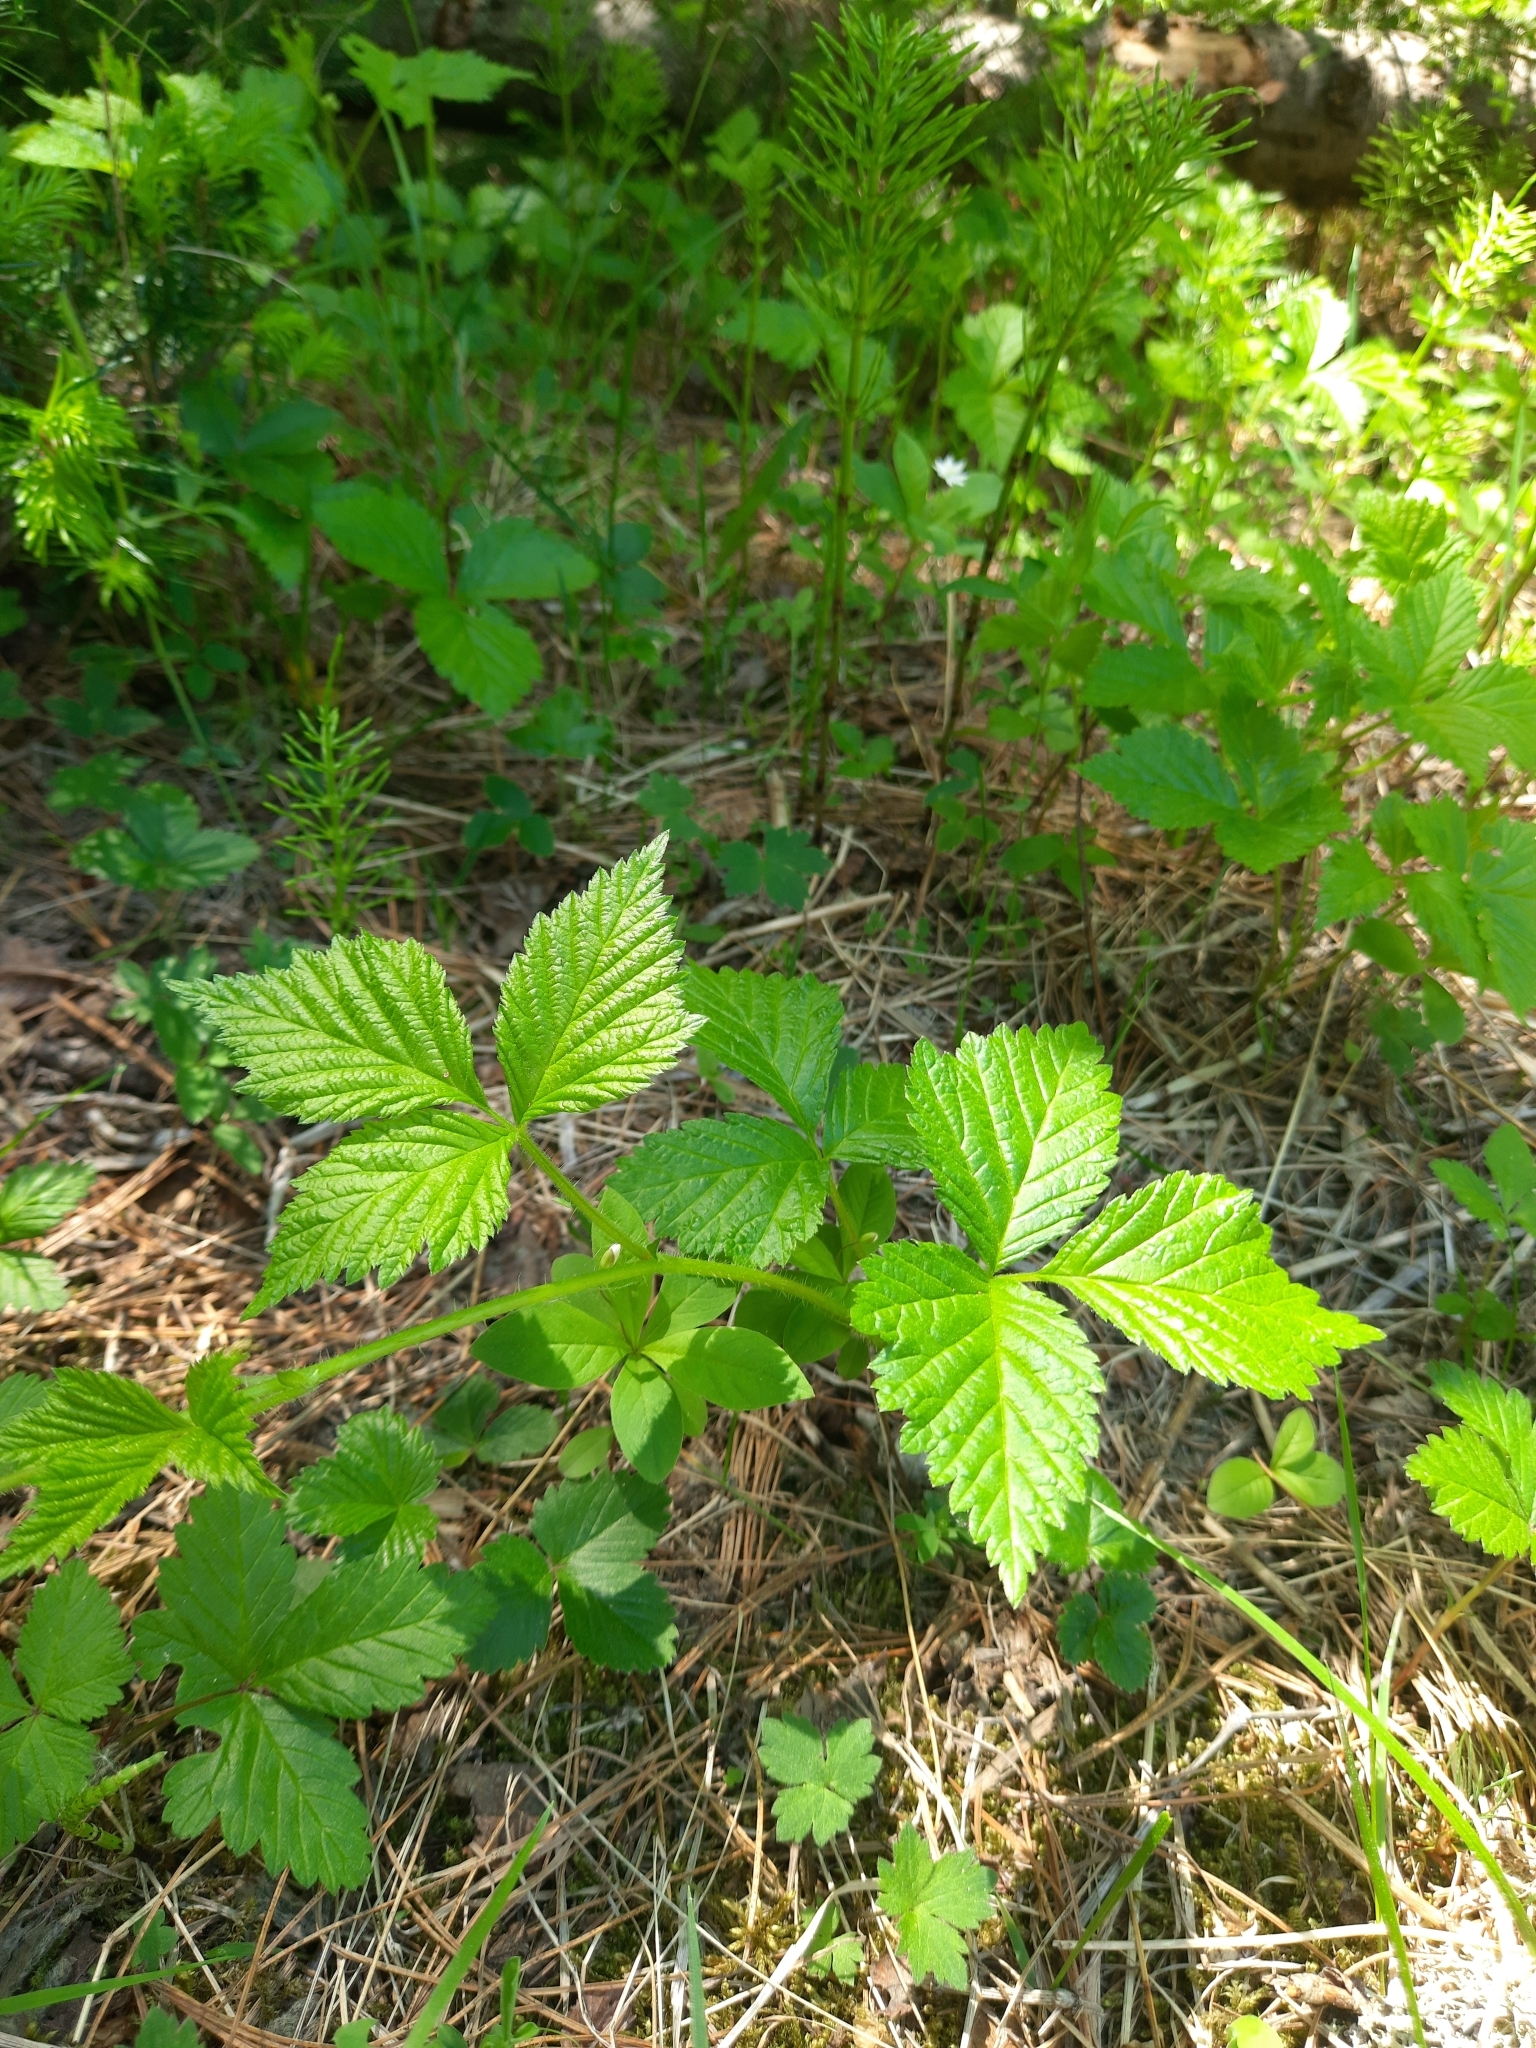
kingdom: Plantae
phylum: Tracheophyta
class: Magnoliopsida
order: Rosales
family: Rosaceae
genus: Rubus
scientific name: Rubus saxatilis
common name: Stone bramble
